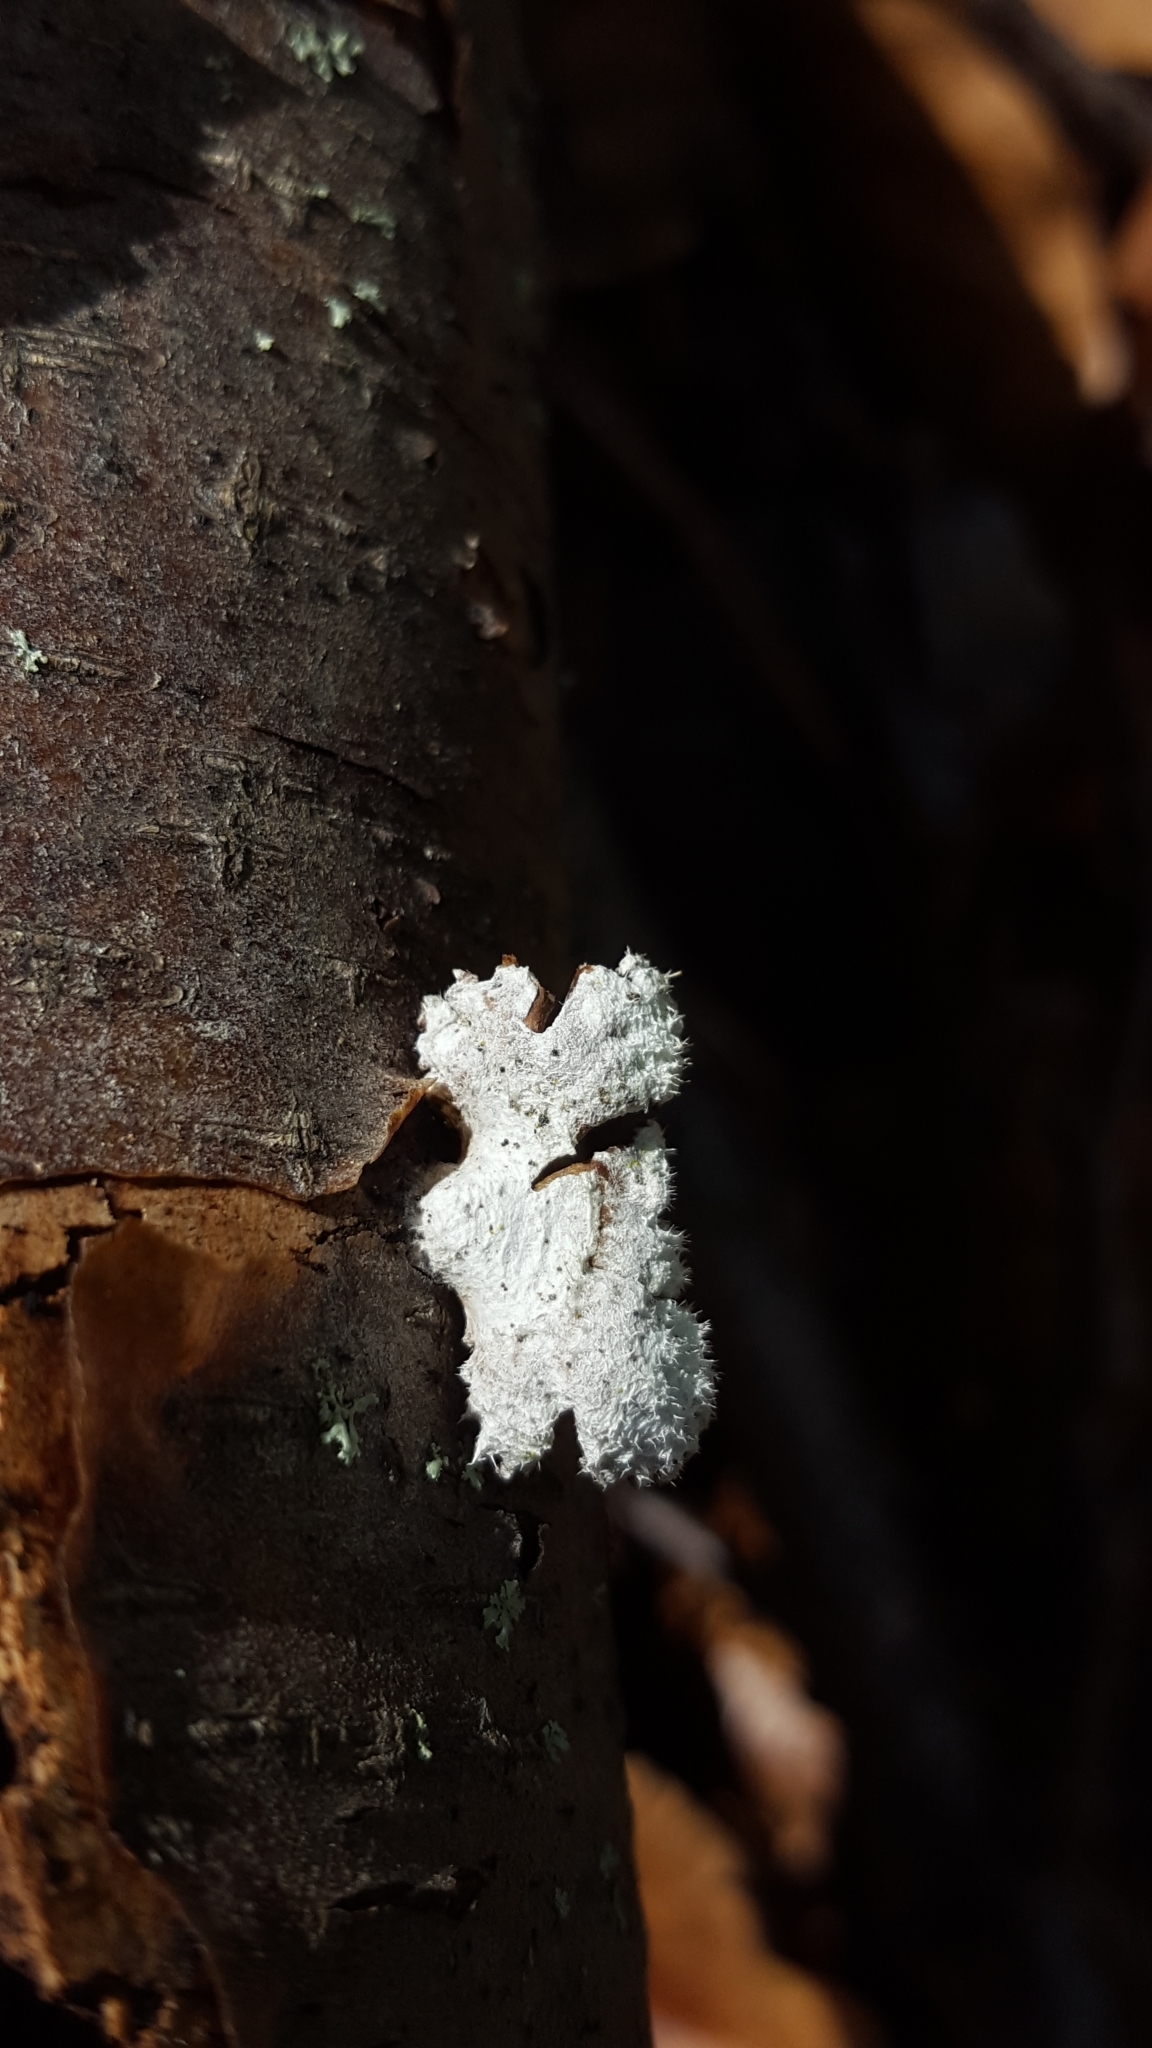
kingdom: Fungi
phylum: Basidiomycota
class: Agaricomycetes
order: Agaricales
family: Schizophyllaceae
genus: Schizophyllum
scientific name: Schizophyllum commune
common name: Common porecrust
